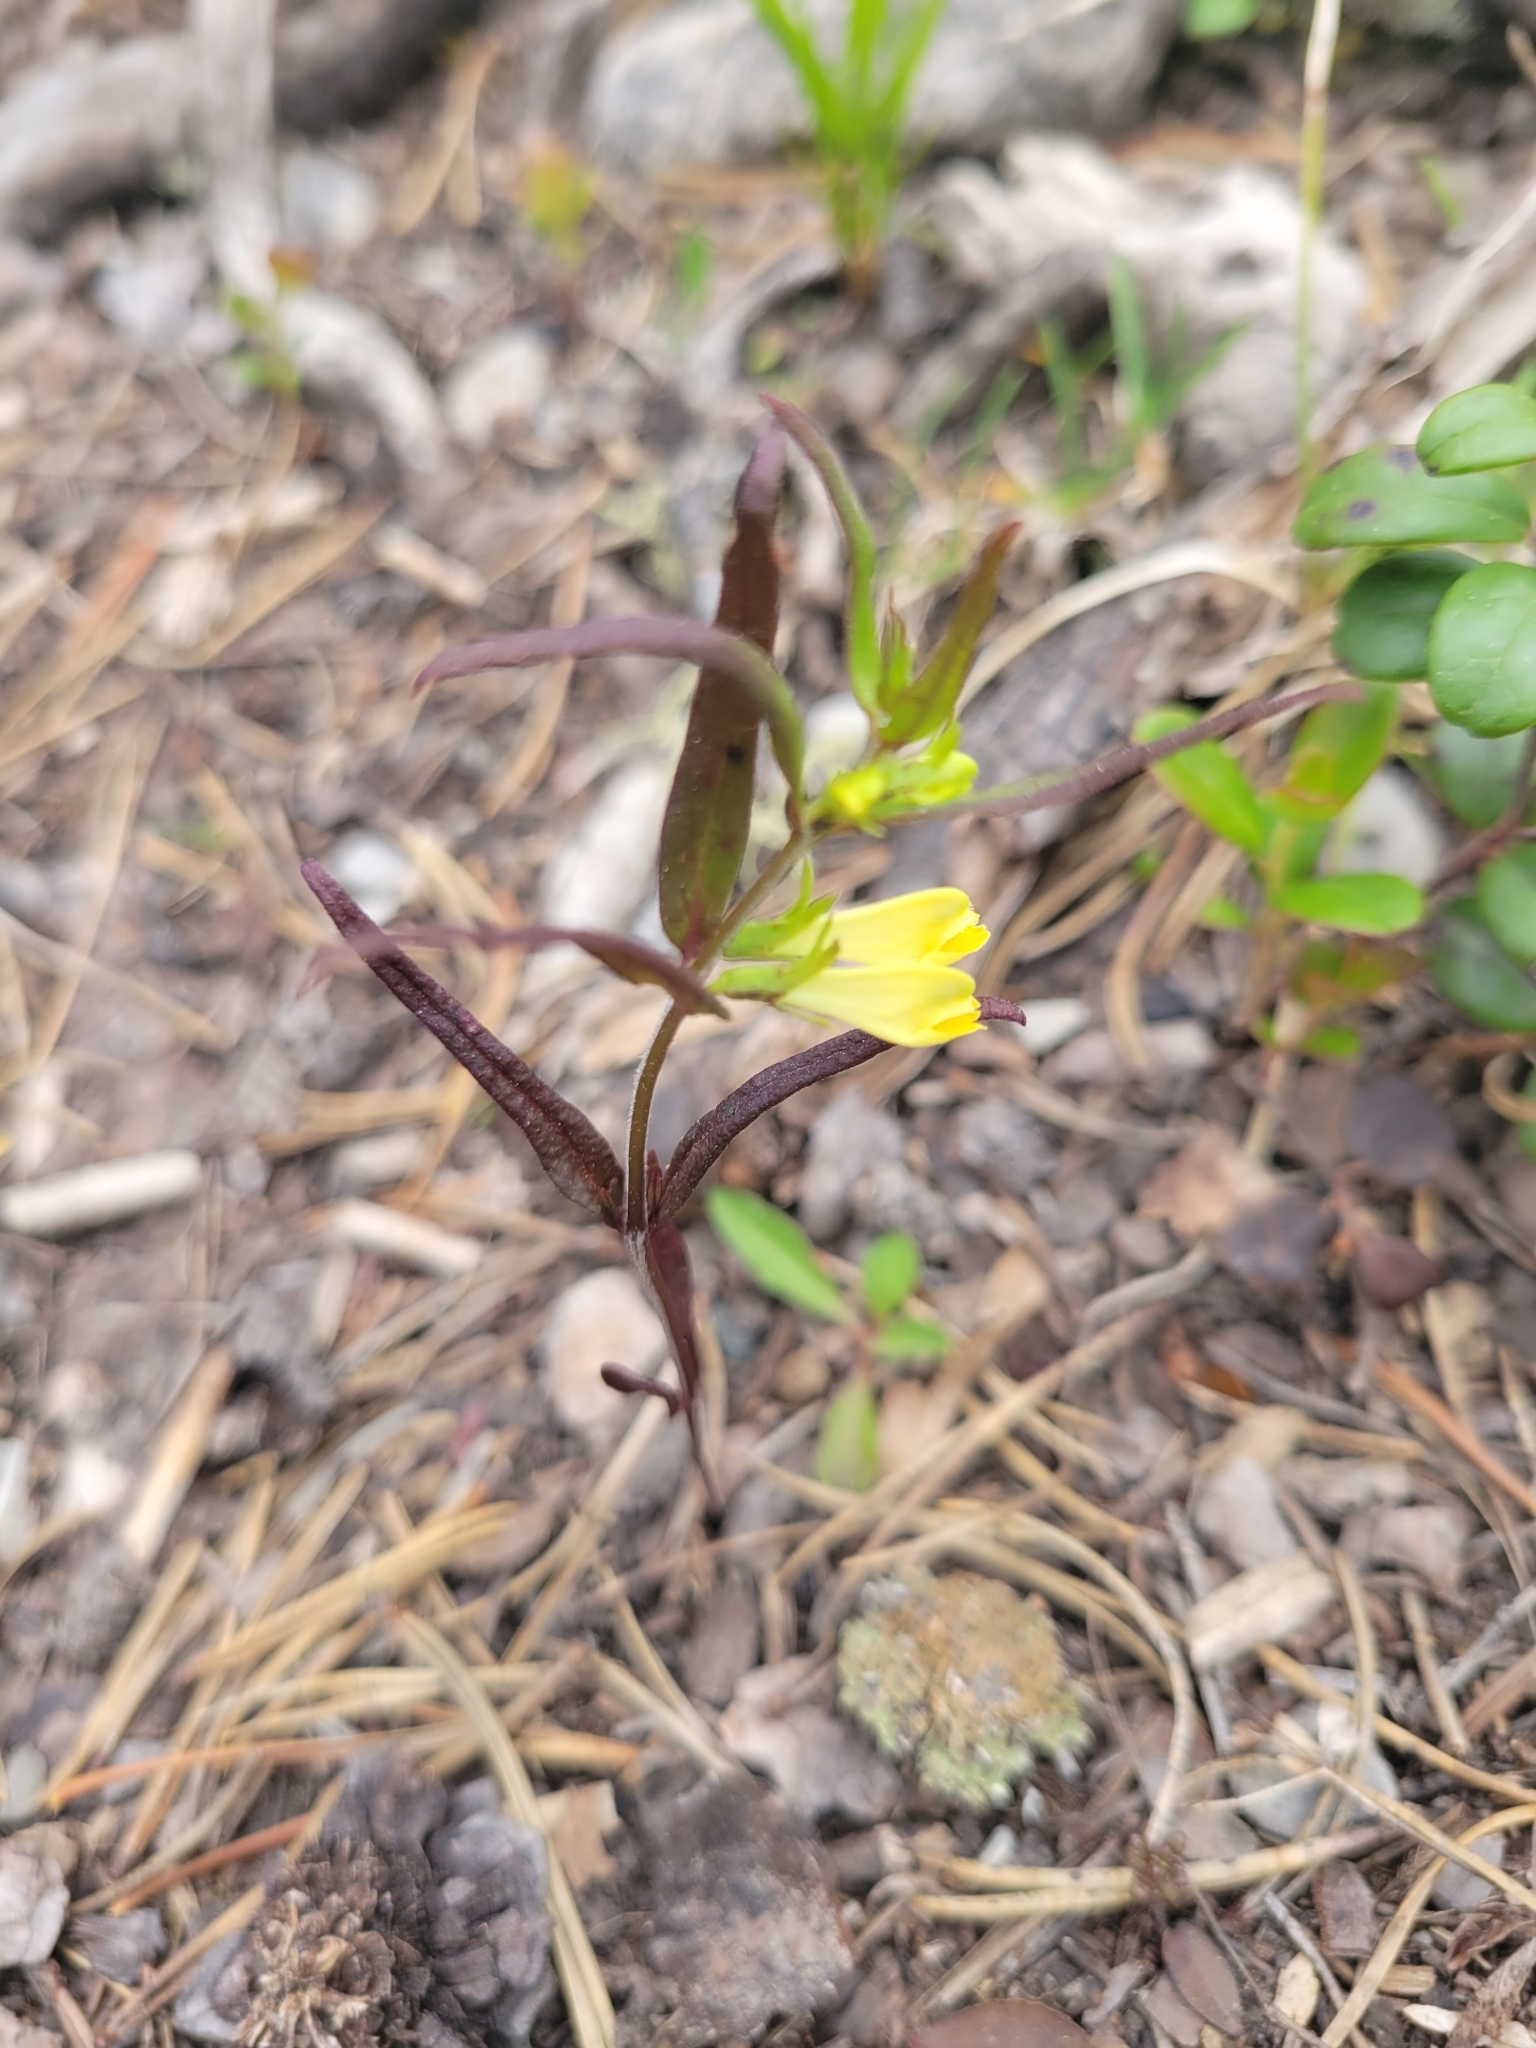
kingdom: Plantae
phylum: Tracheophyta
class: Magnoliopsida
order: Lamiales
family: Orobanchaceae
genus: Melampyrum
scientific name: Melampyrum pratense
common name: Common cow-wheat
